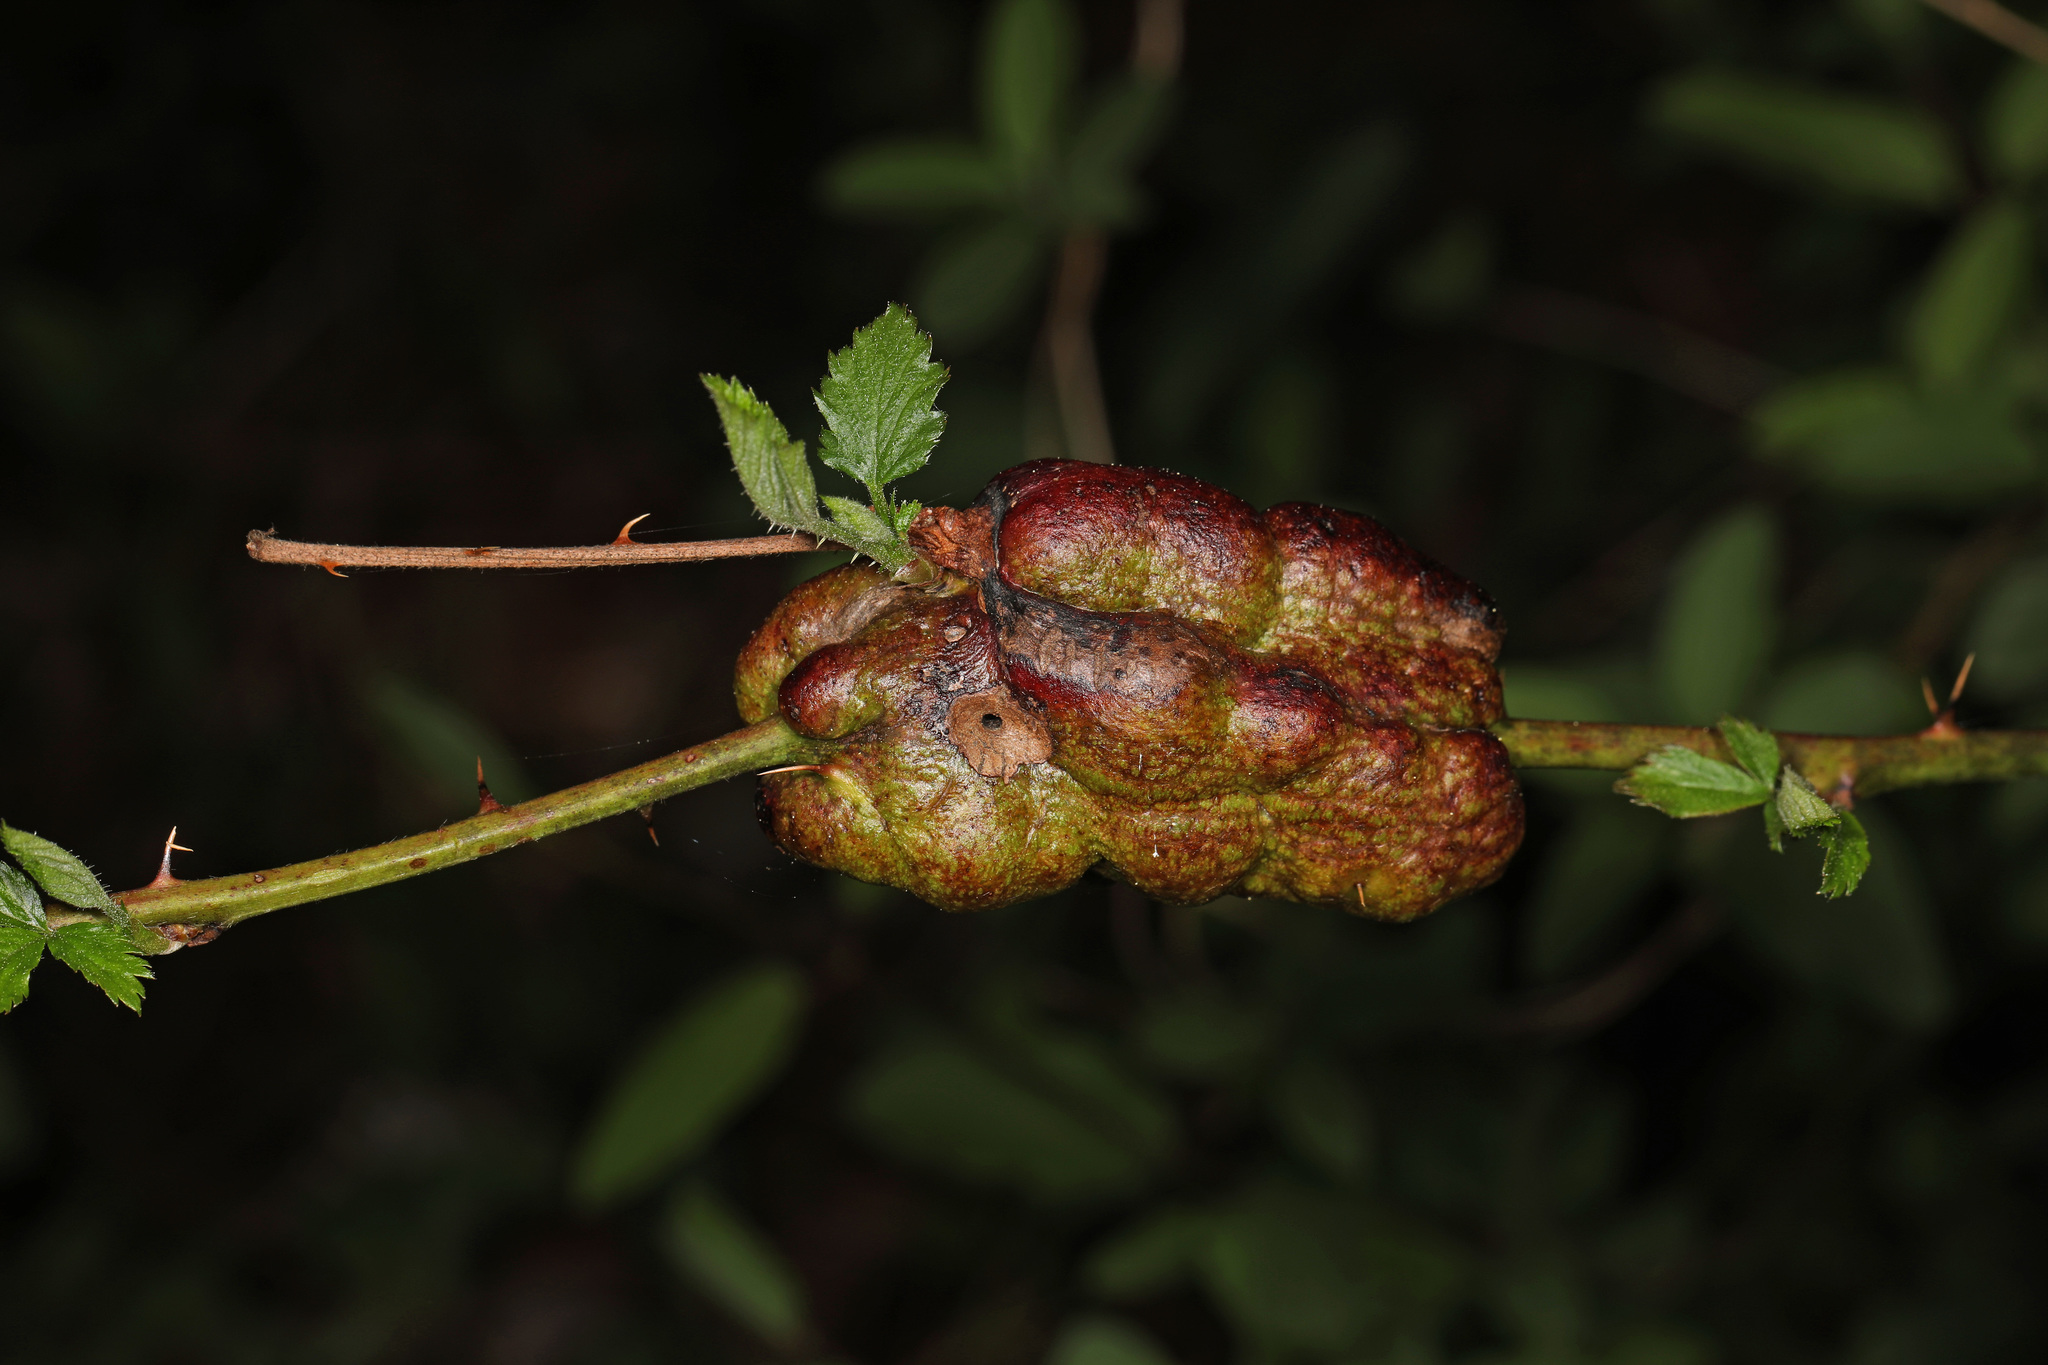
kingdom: Animalia
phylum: Arthropoda
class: Insecta
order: Hymenoptera
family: Cynipidae
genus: Diastrophus
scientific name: Diastrophus
